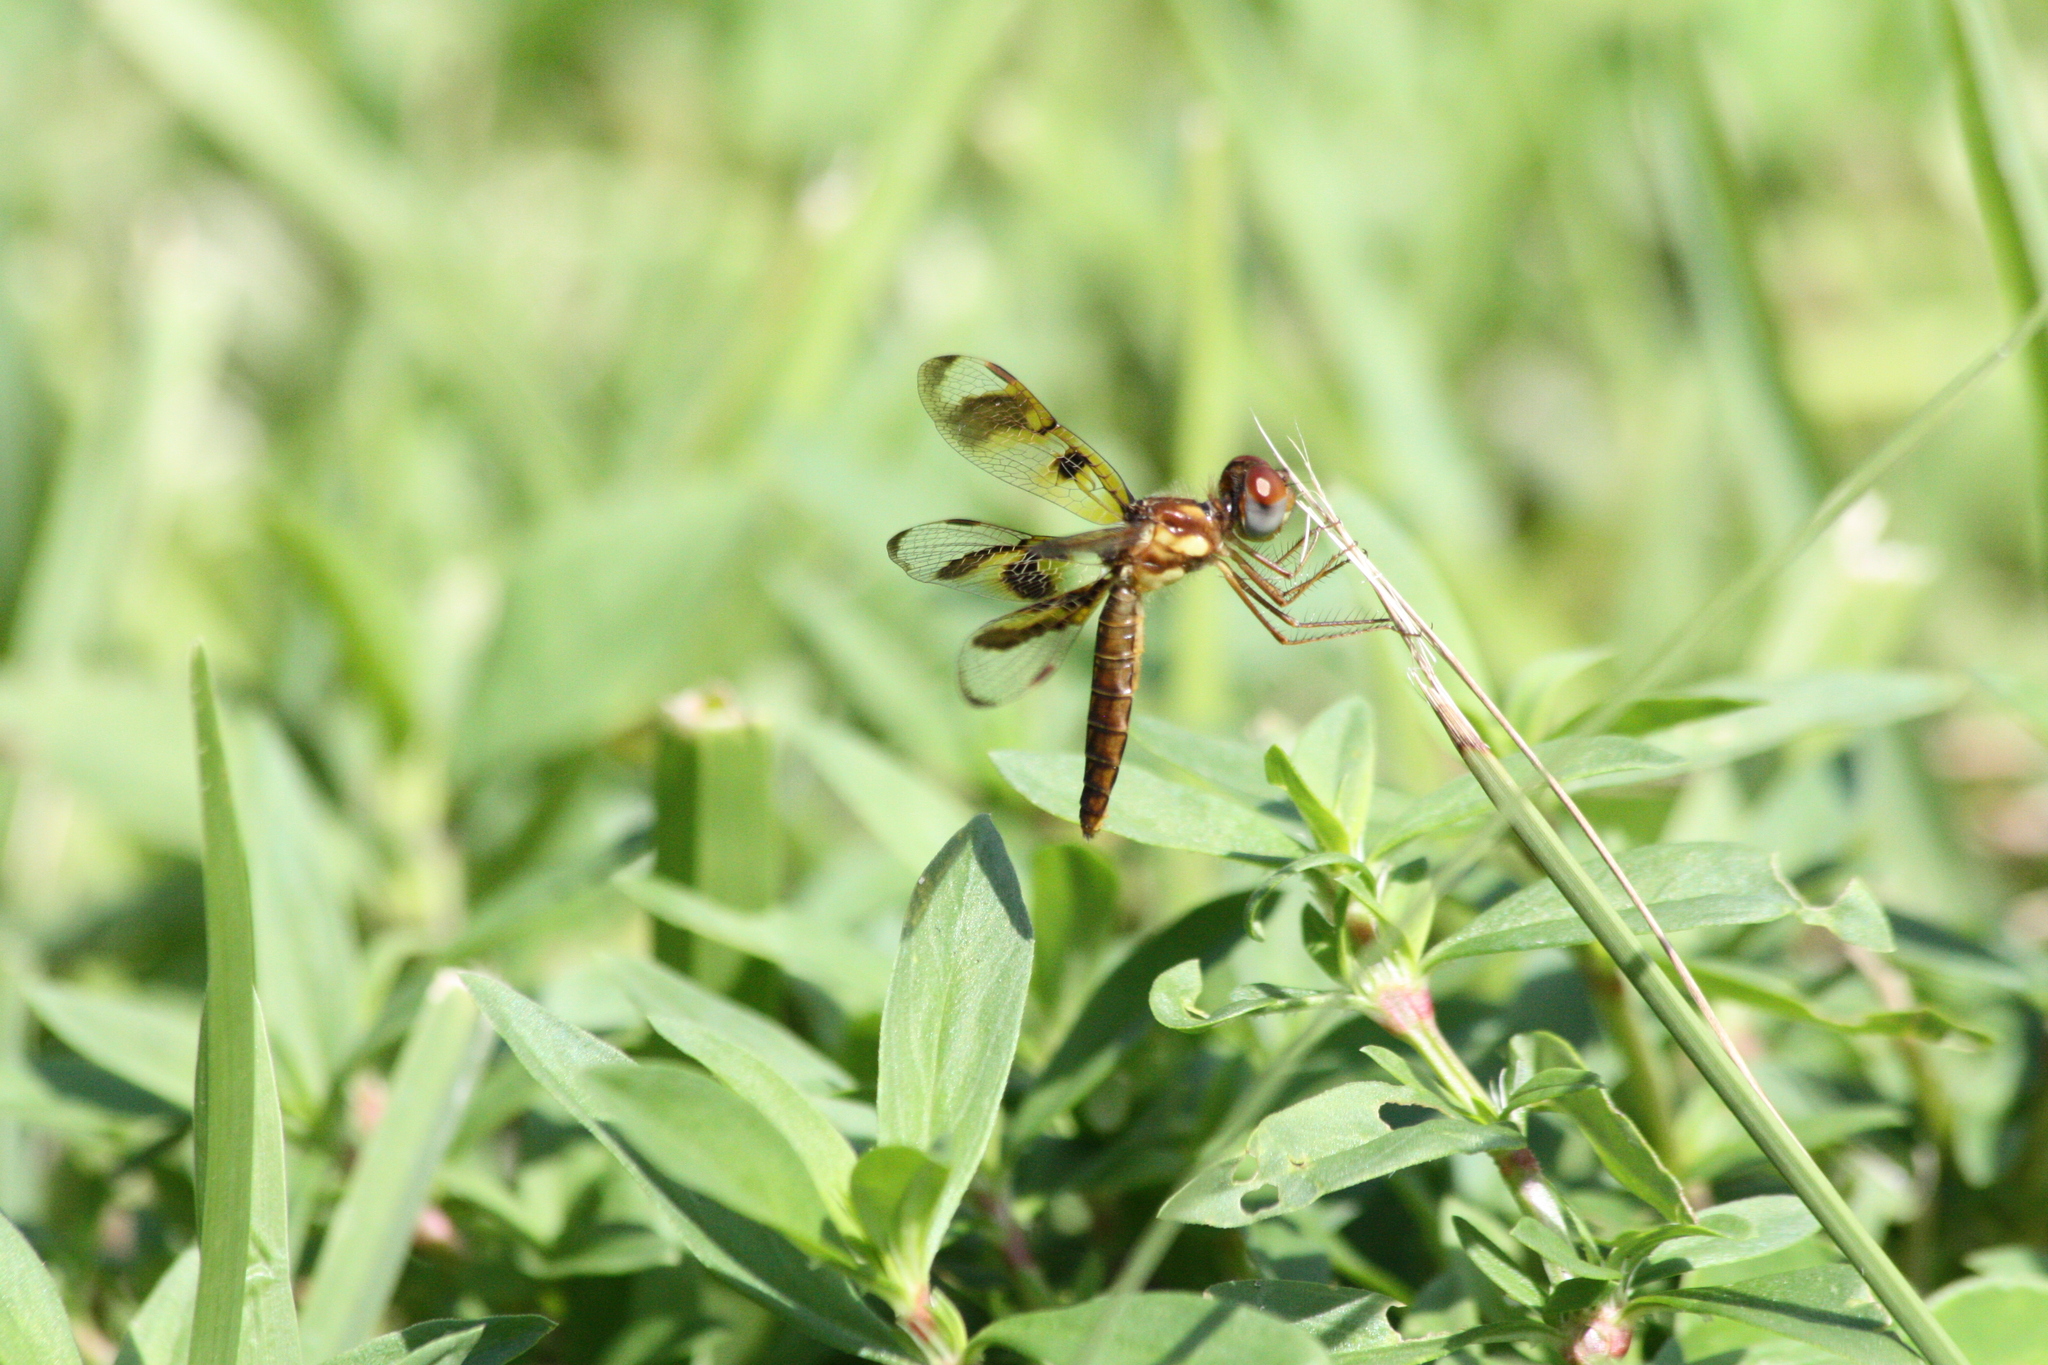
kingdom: Animalia
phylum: Arthropoda
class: Insecta
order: Odonata
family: Libellulidae
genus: Perithemis
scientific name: Perithemis tenera
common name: Eastern amberwing
